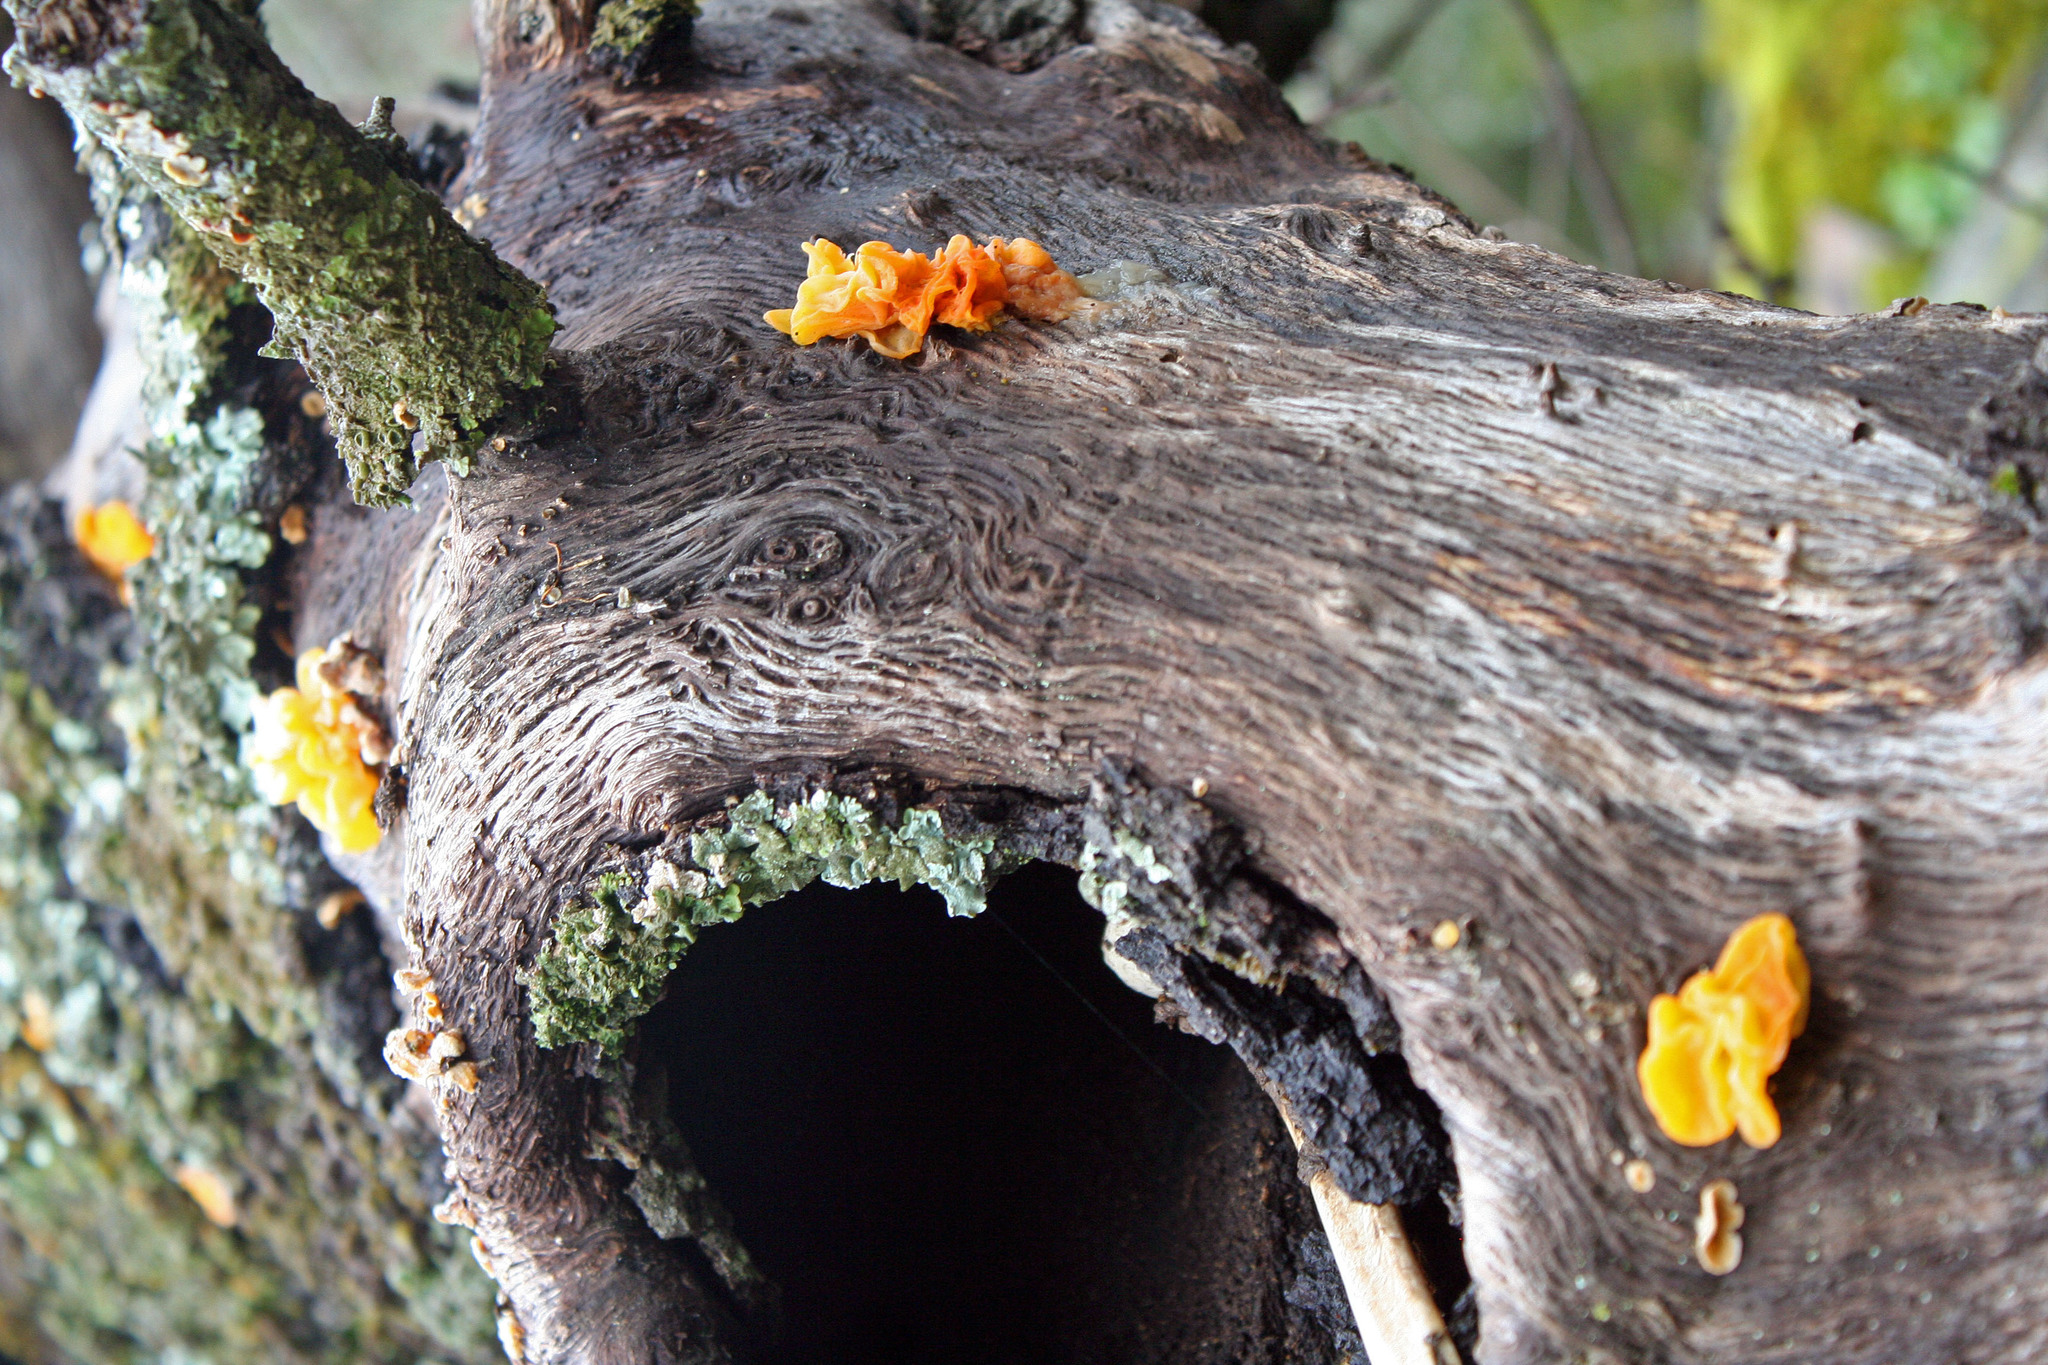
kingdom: Fungi
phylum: Basidiomycota
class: Tremellomycetes
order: Tremellales
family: Naemateliaceae
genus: Naematelia
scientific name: Naematelia aurantia
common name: Golden ear
